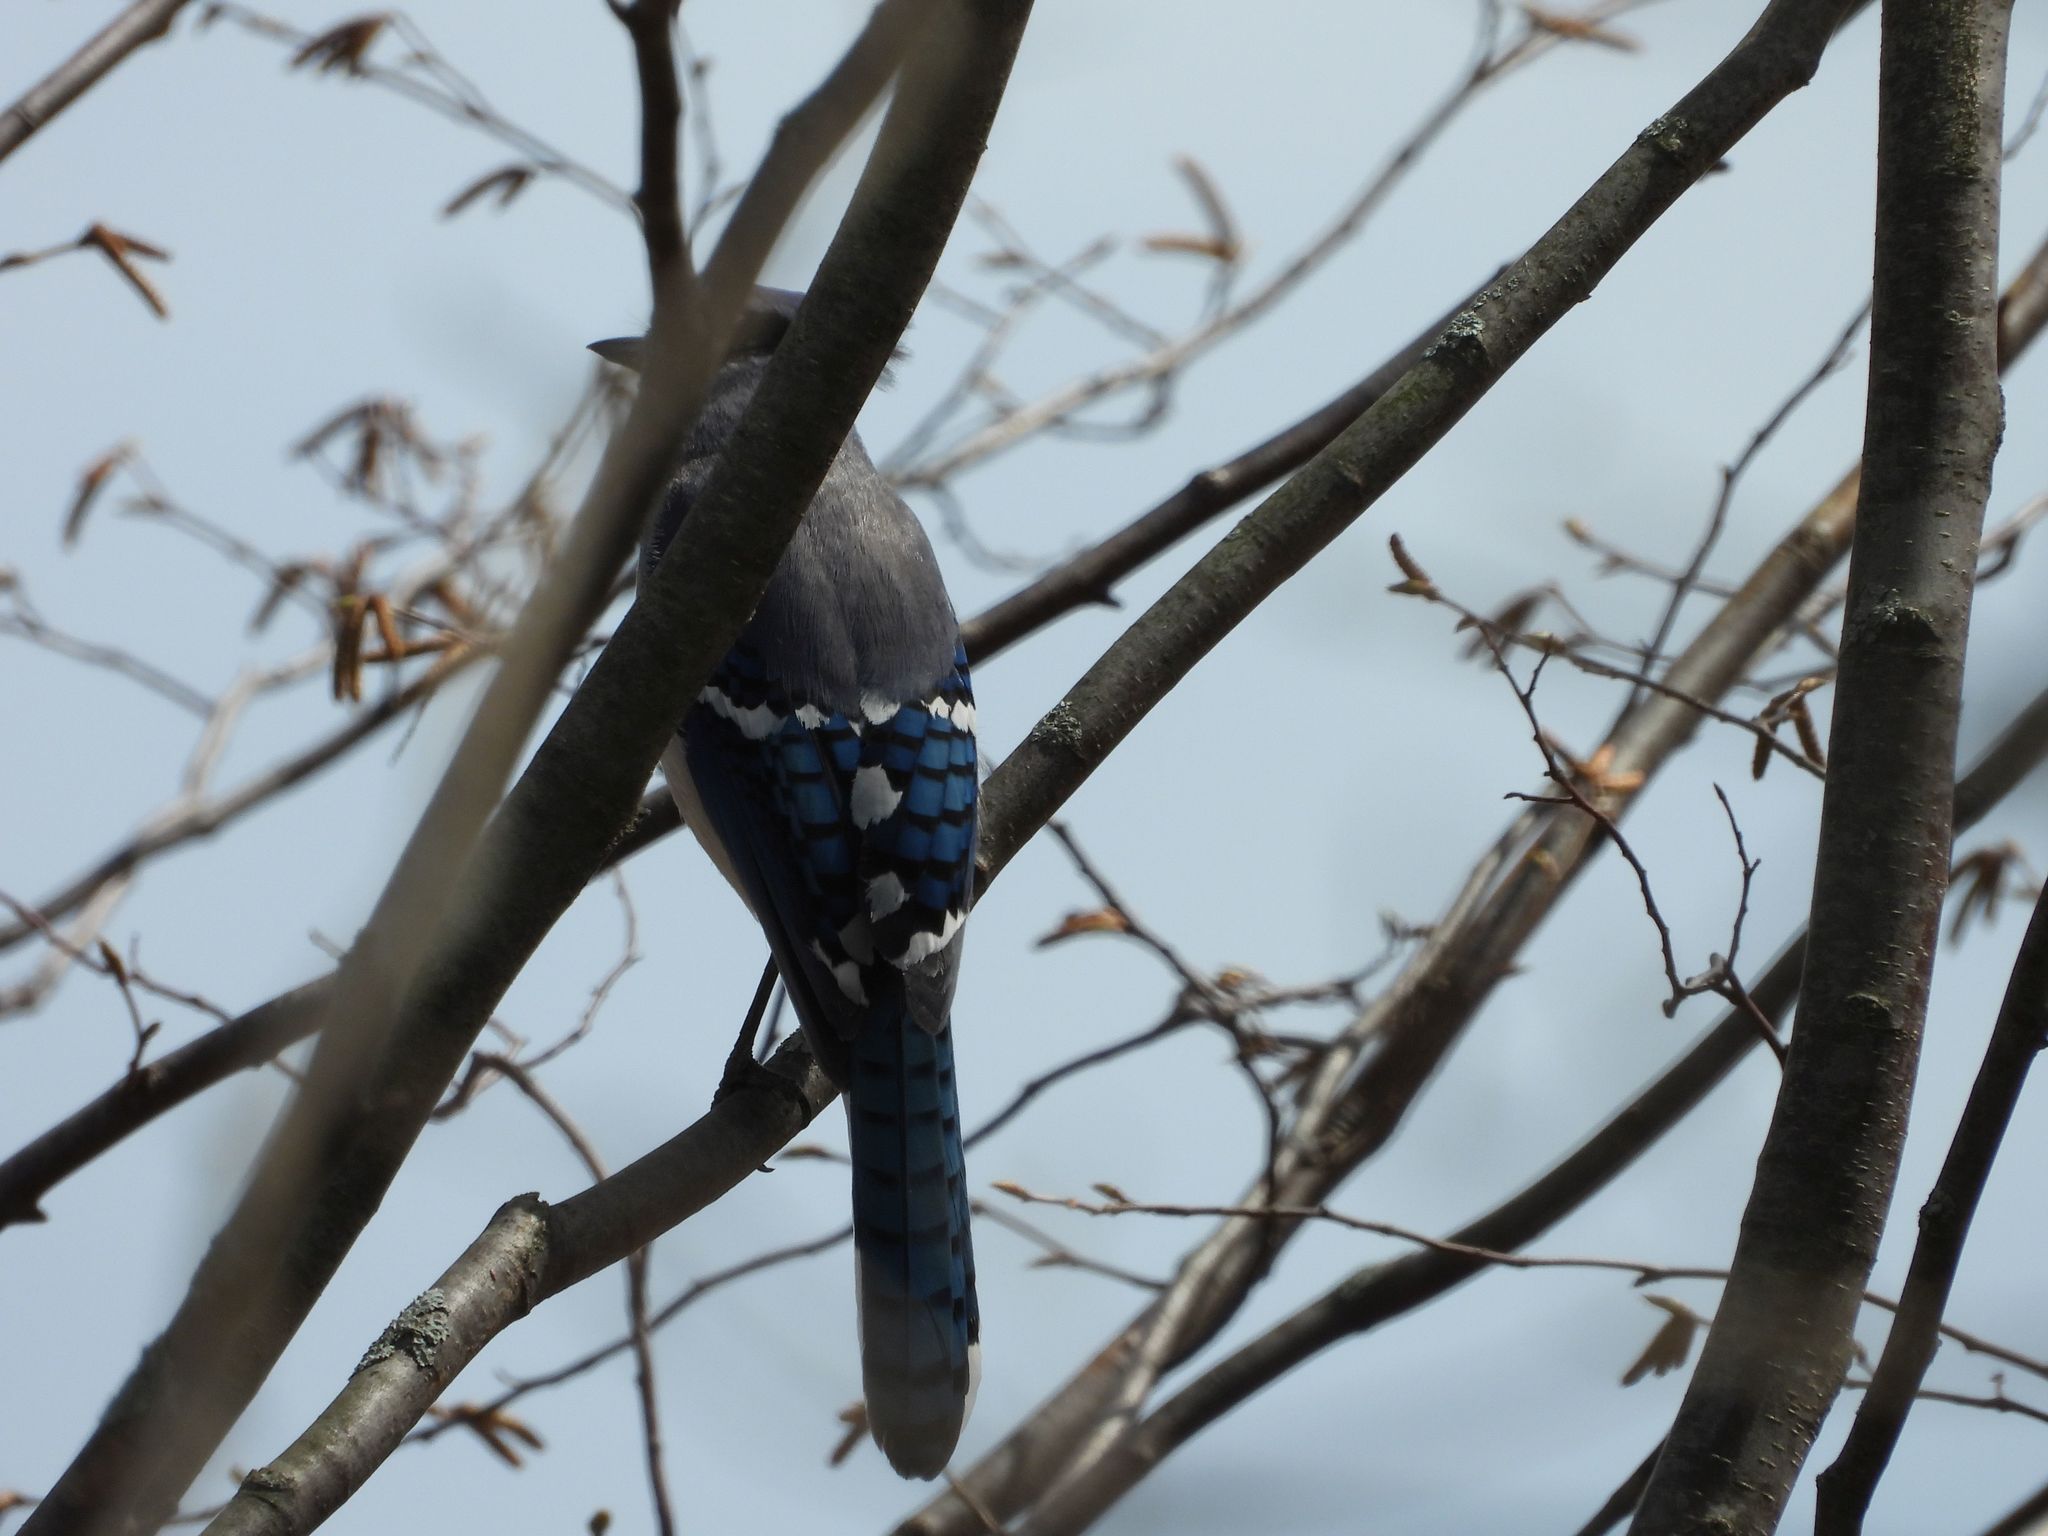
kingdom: Animalia
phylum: Chordata
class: Aves
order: Passeriformes
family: Corvidae
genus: Cyanocitta
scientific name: Cyanocitta cristata
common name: Blue jay
